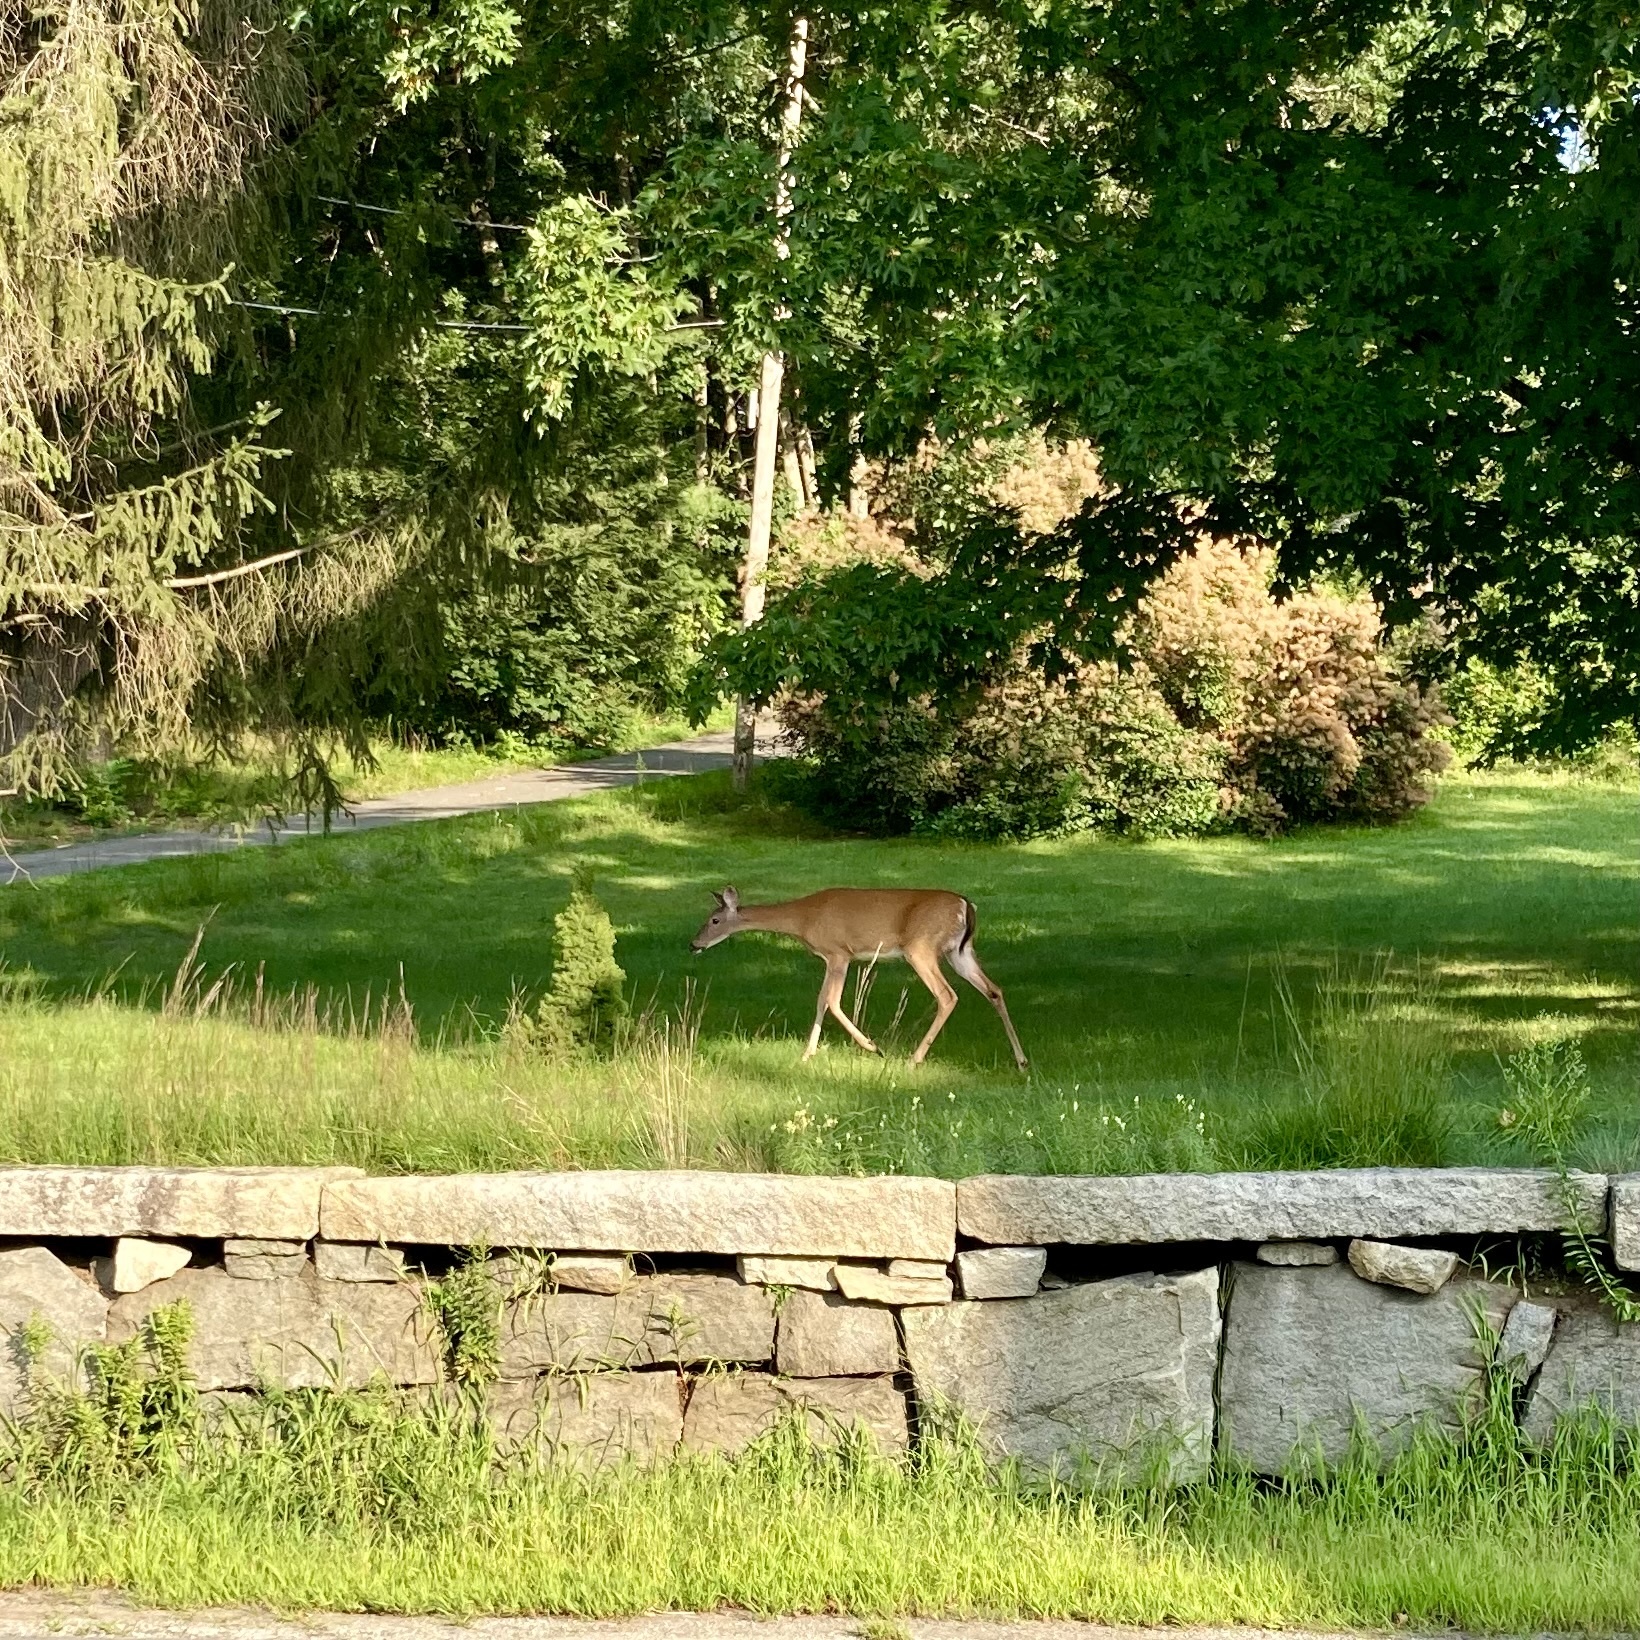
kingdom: Animalia
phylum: Chordata
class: Mammalia
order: Artiodactyla
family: Cervidae
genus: Odocoileus
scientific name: Odocoileus virginianus
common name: White-tailed deer
